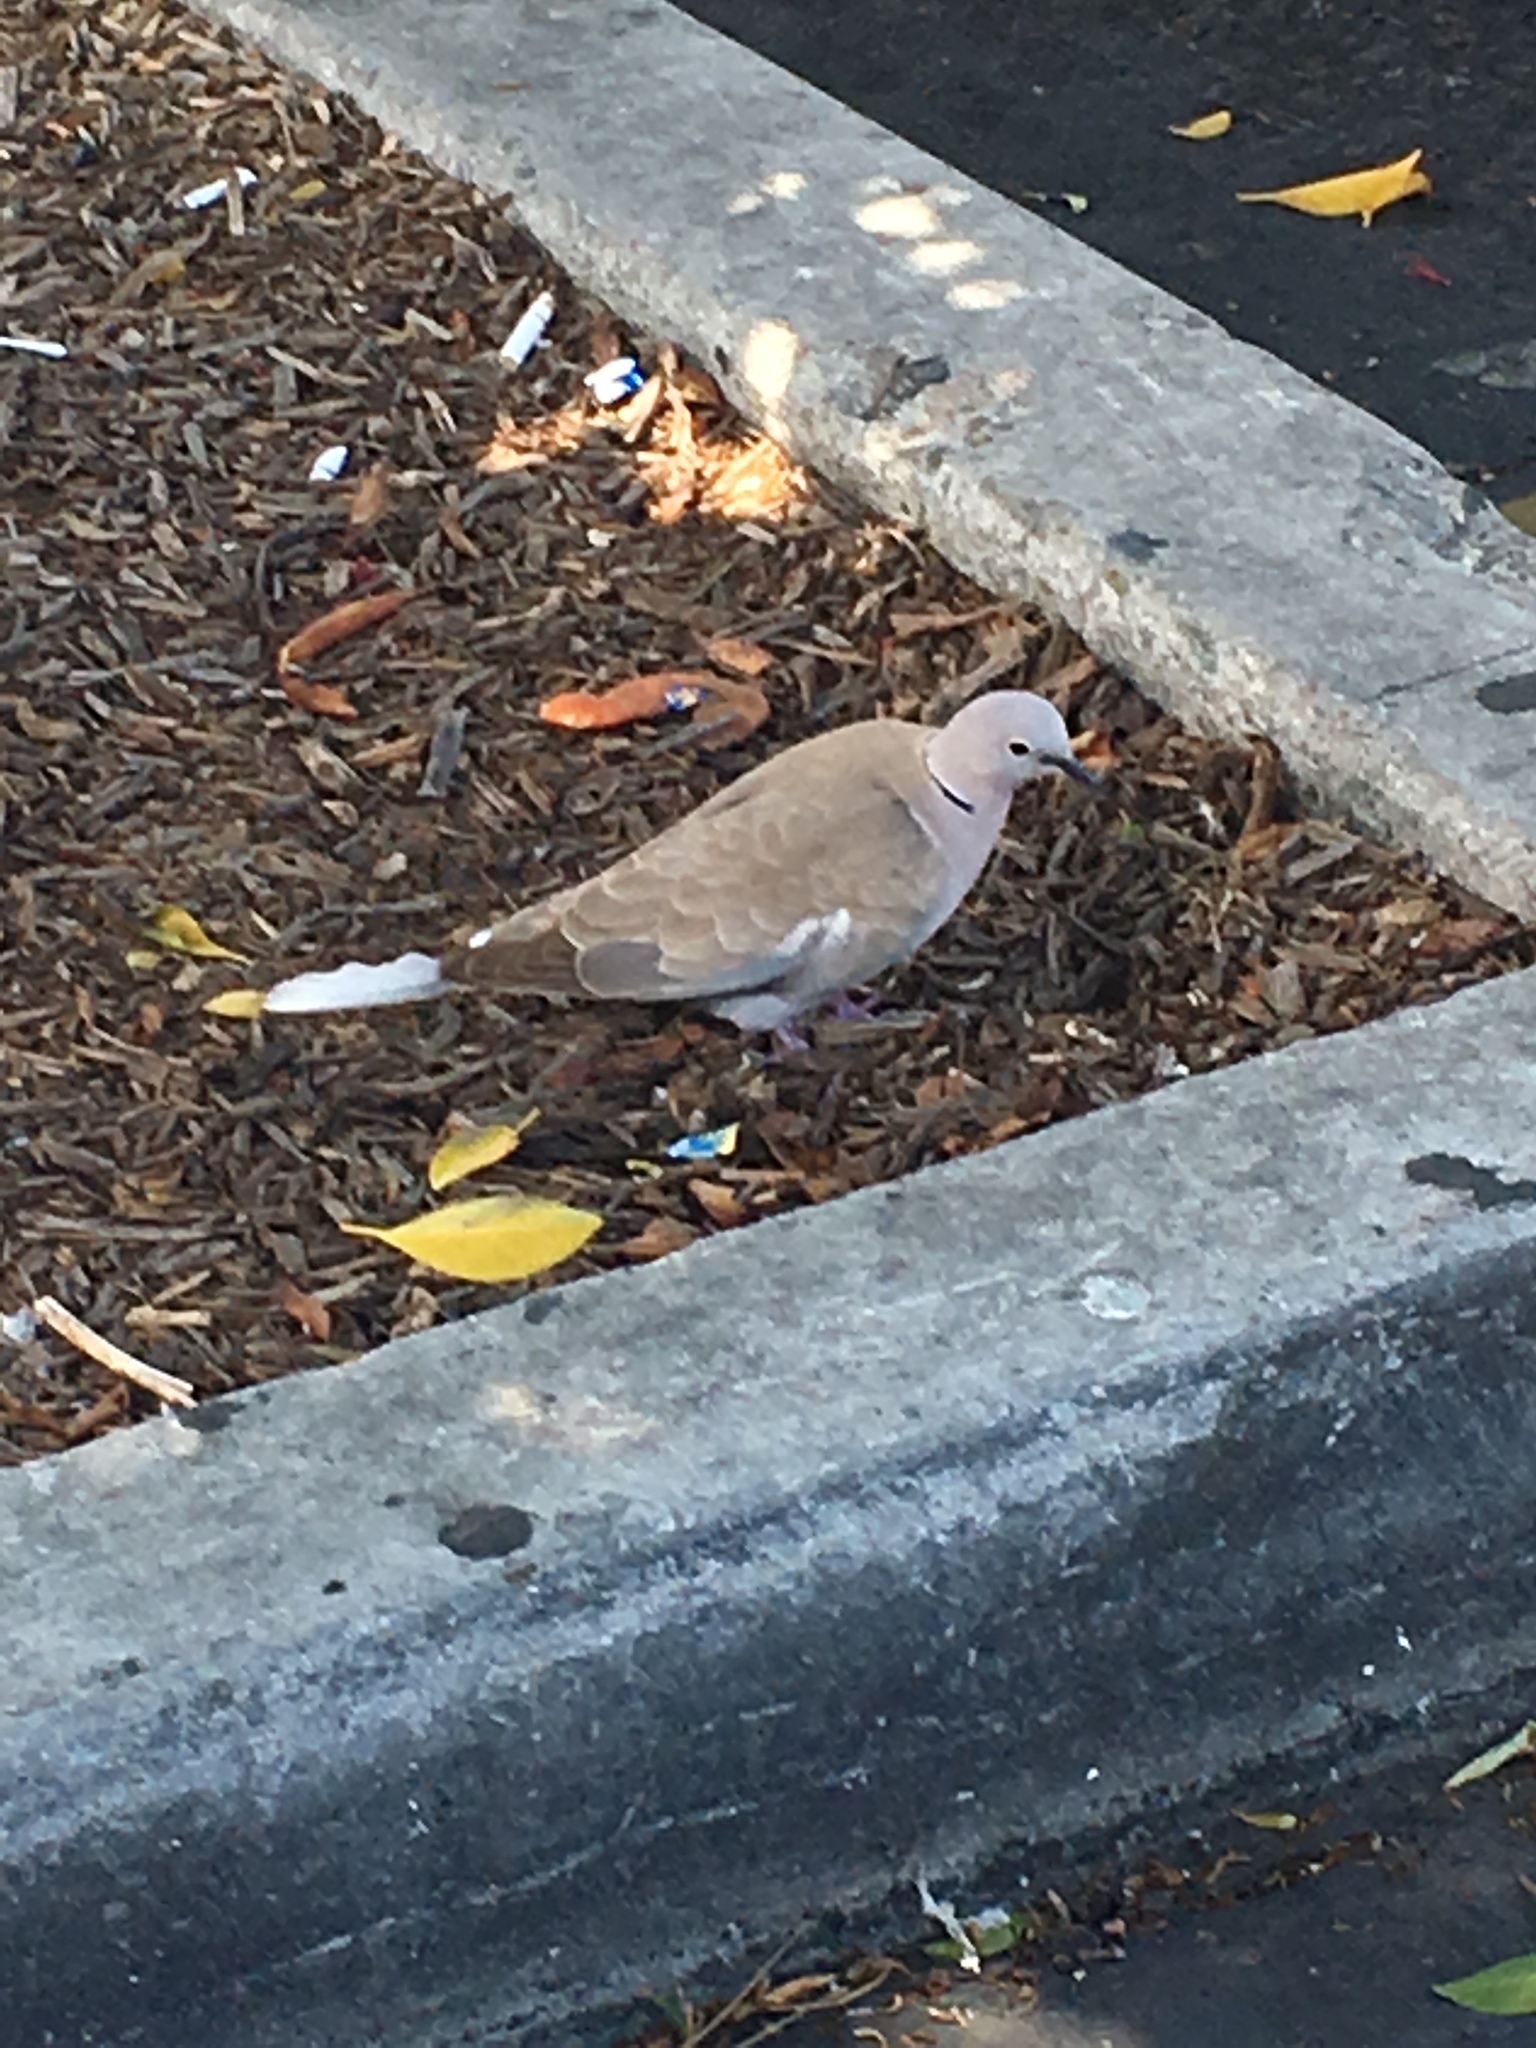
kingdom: Animalia
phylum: Chordata
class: Aves
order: Columbiformes
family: Columbidae
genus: Streptopelia
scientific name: Streptopelia decaocto
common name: Eurasian collared dove
